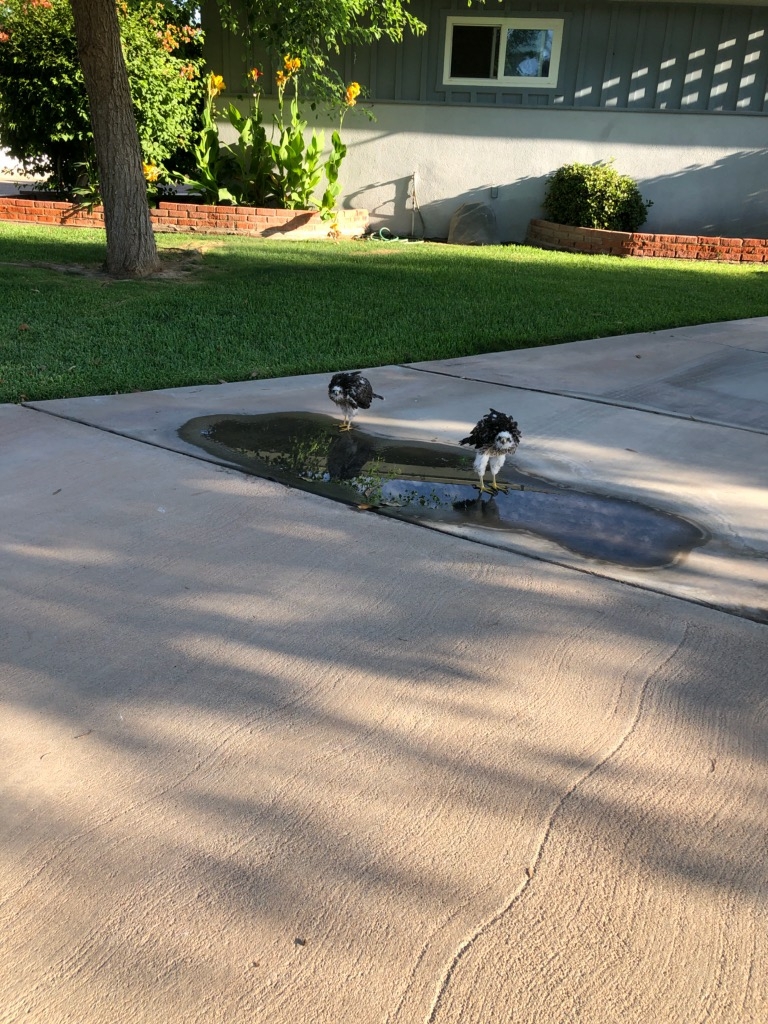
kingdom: Animalia
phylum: Chordata
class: Aves
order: Accipitriformes
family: Accipitridae
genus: Accipiter
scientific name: Accipiter cooperii
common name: Cooper's hawk
